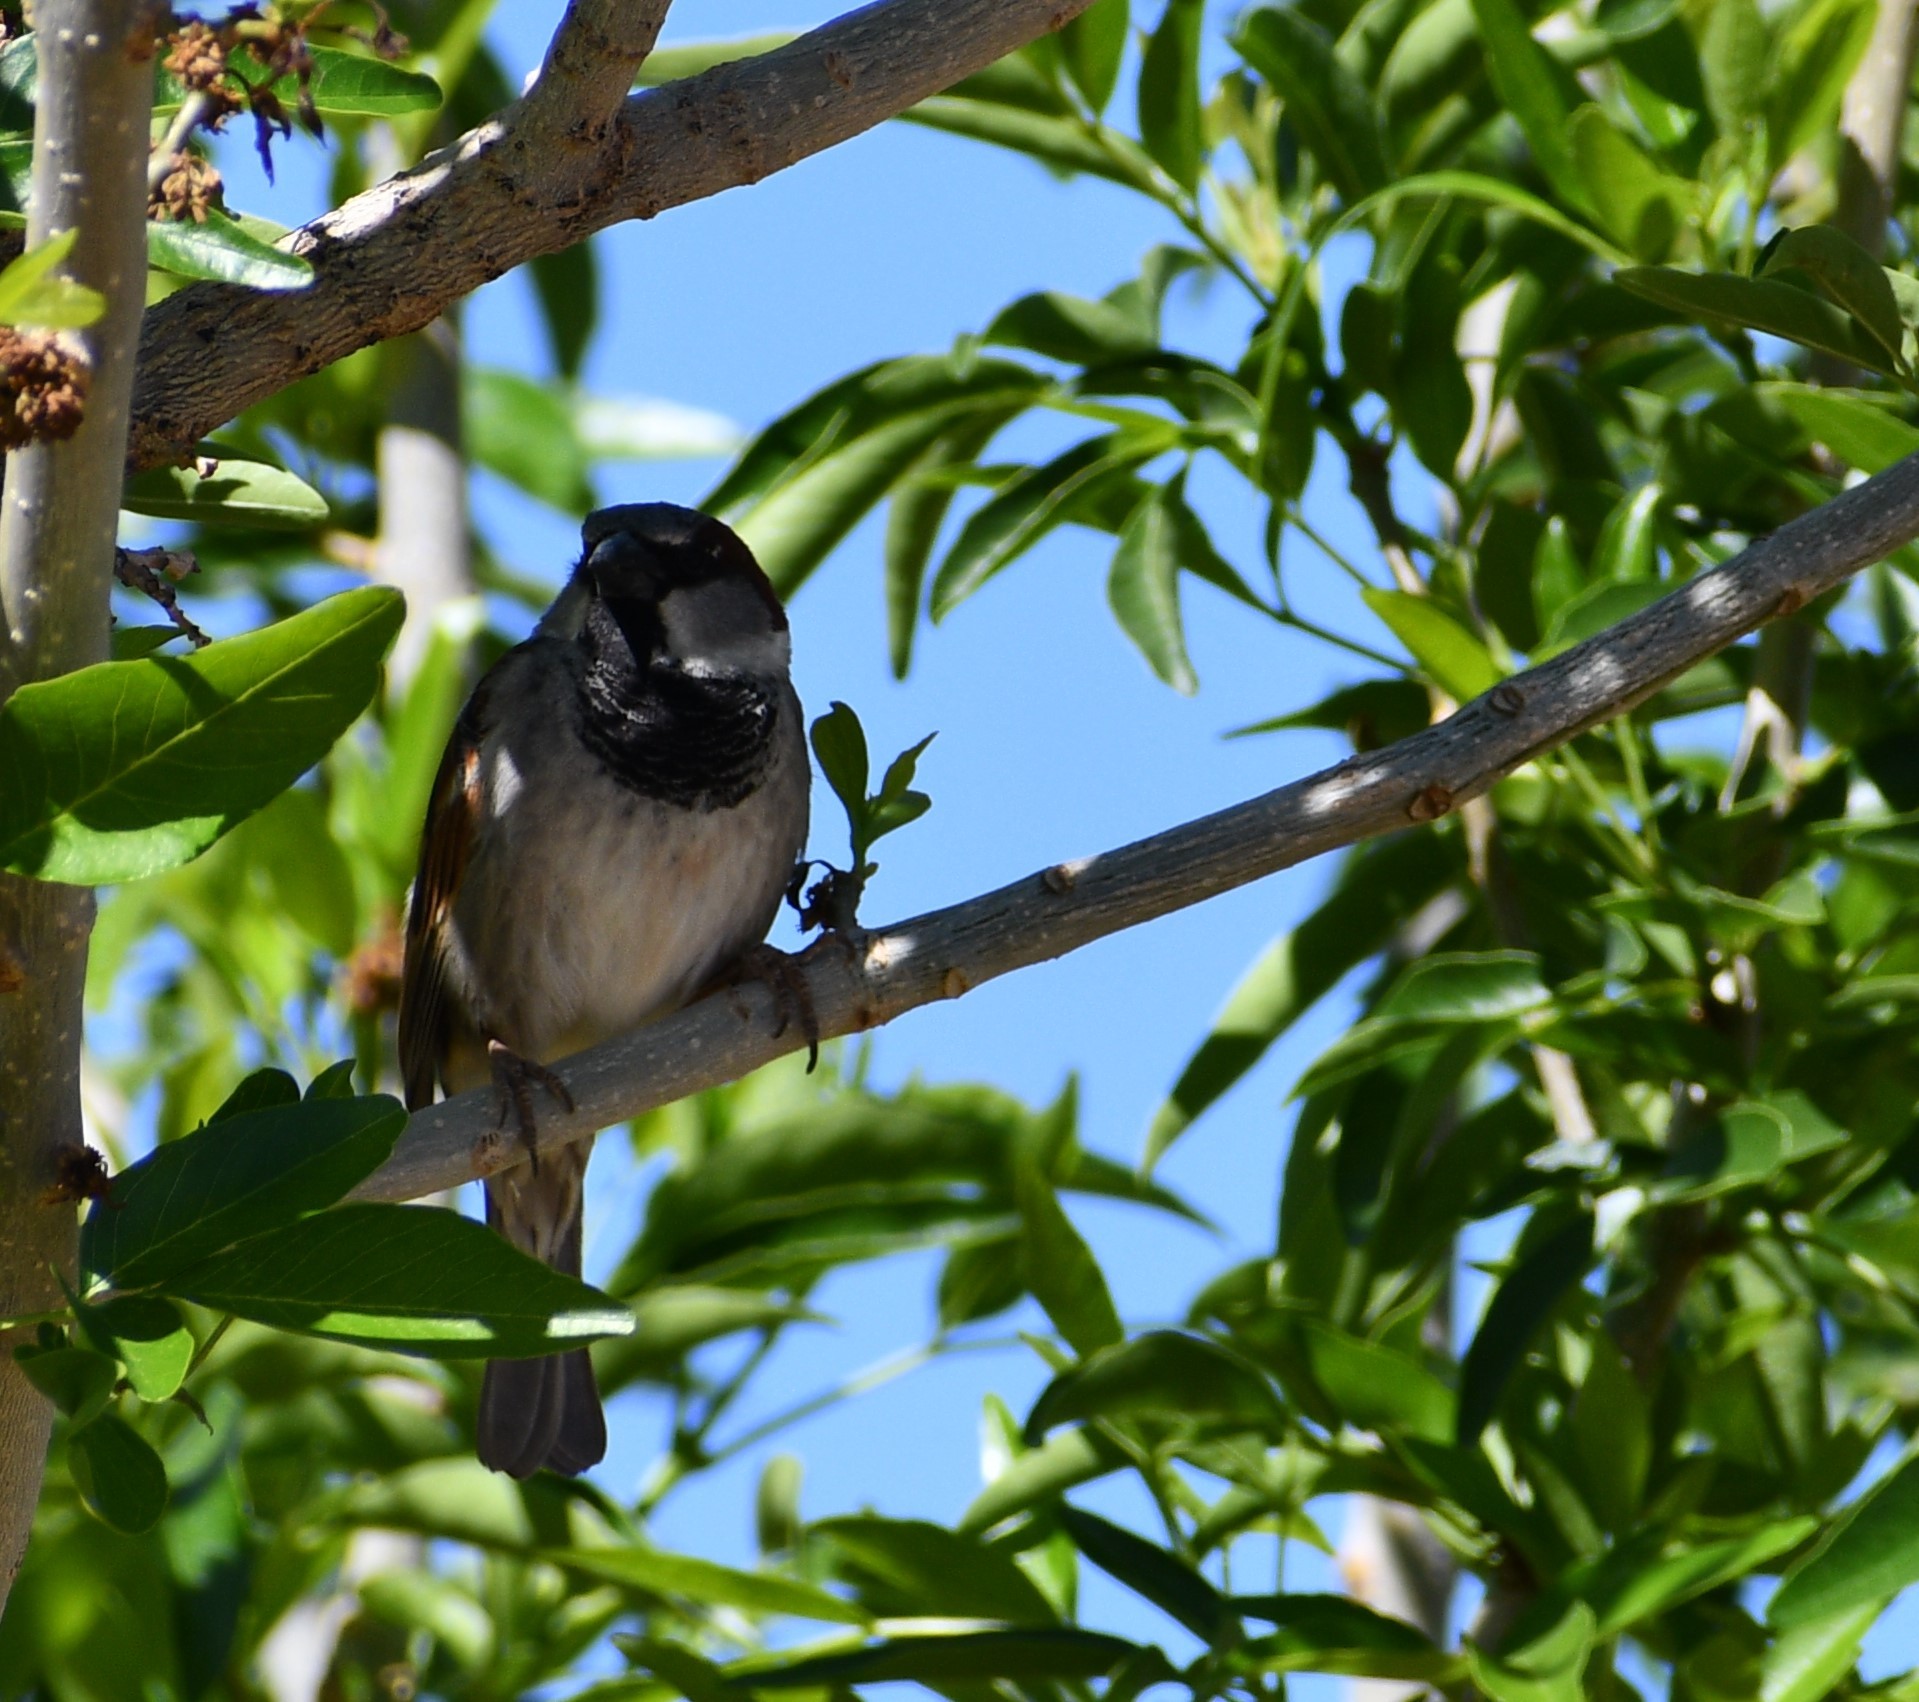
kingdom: Animalia
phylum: Chordata
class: Aves
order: Passeriformes
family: Passeridae
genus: Passer
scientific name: Passer domesticus
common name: House sparrow
